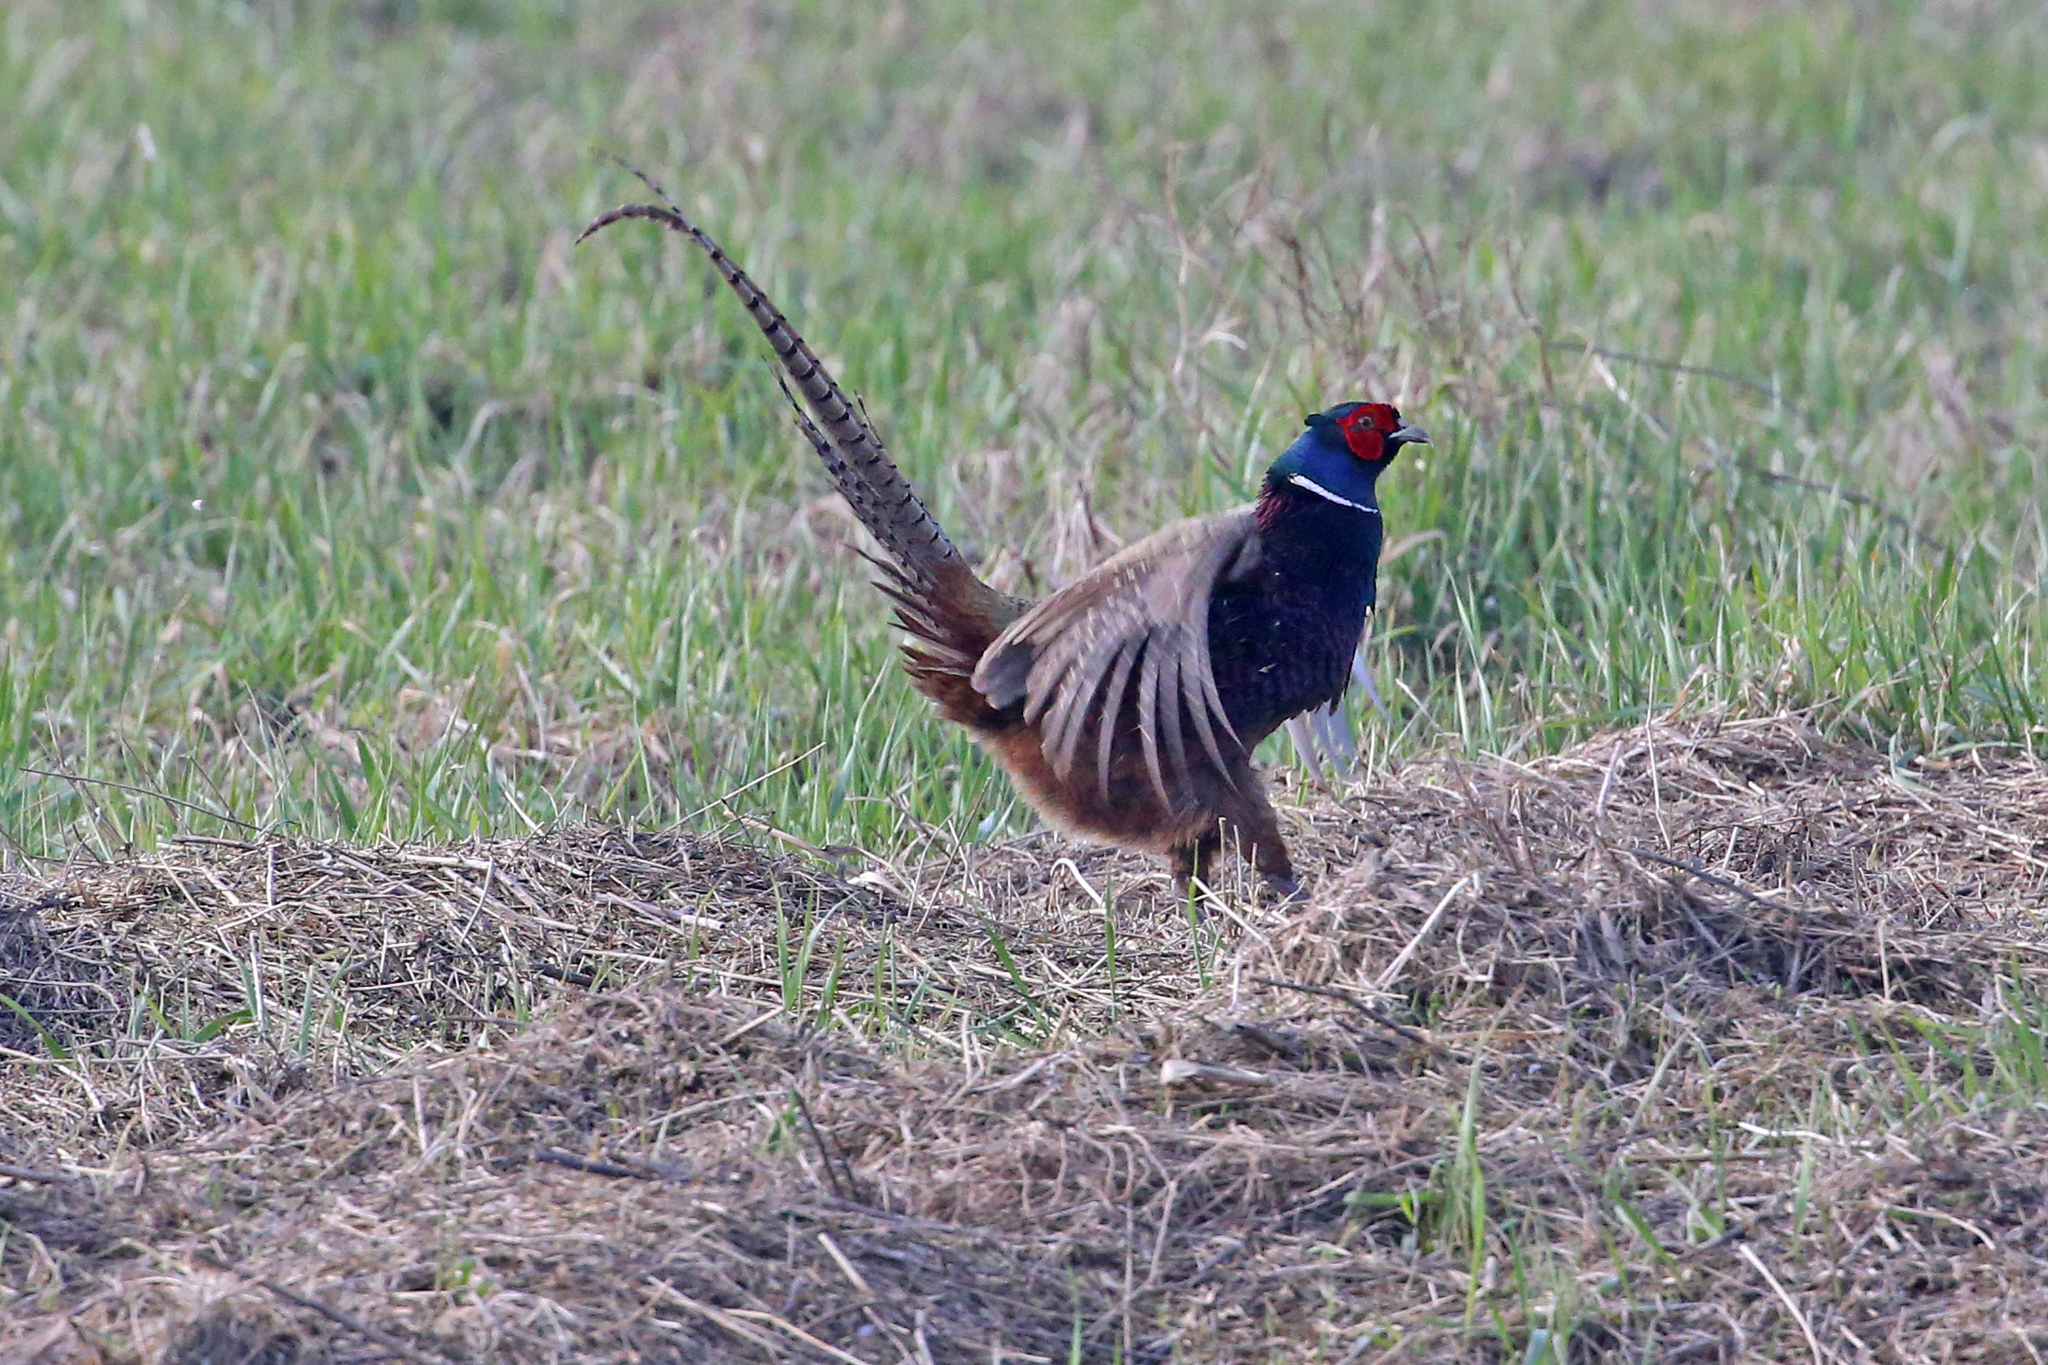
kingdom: Animalia
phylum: Chordata
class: Aves
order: Galliformes
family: Phasianidae
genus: Phasianus
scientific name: Phasianus colchicus
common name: Common pheasant
